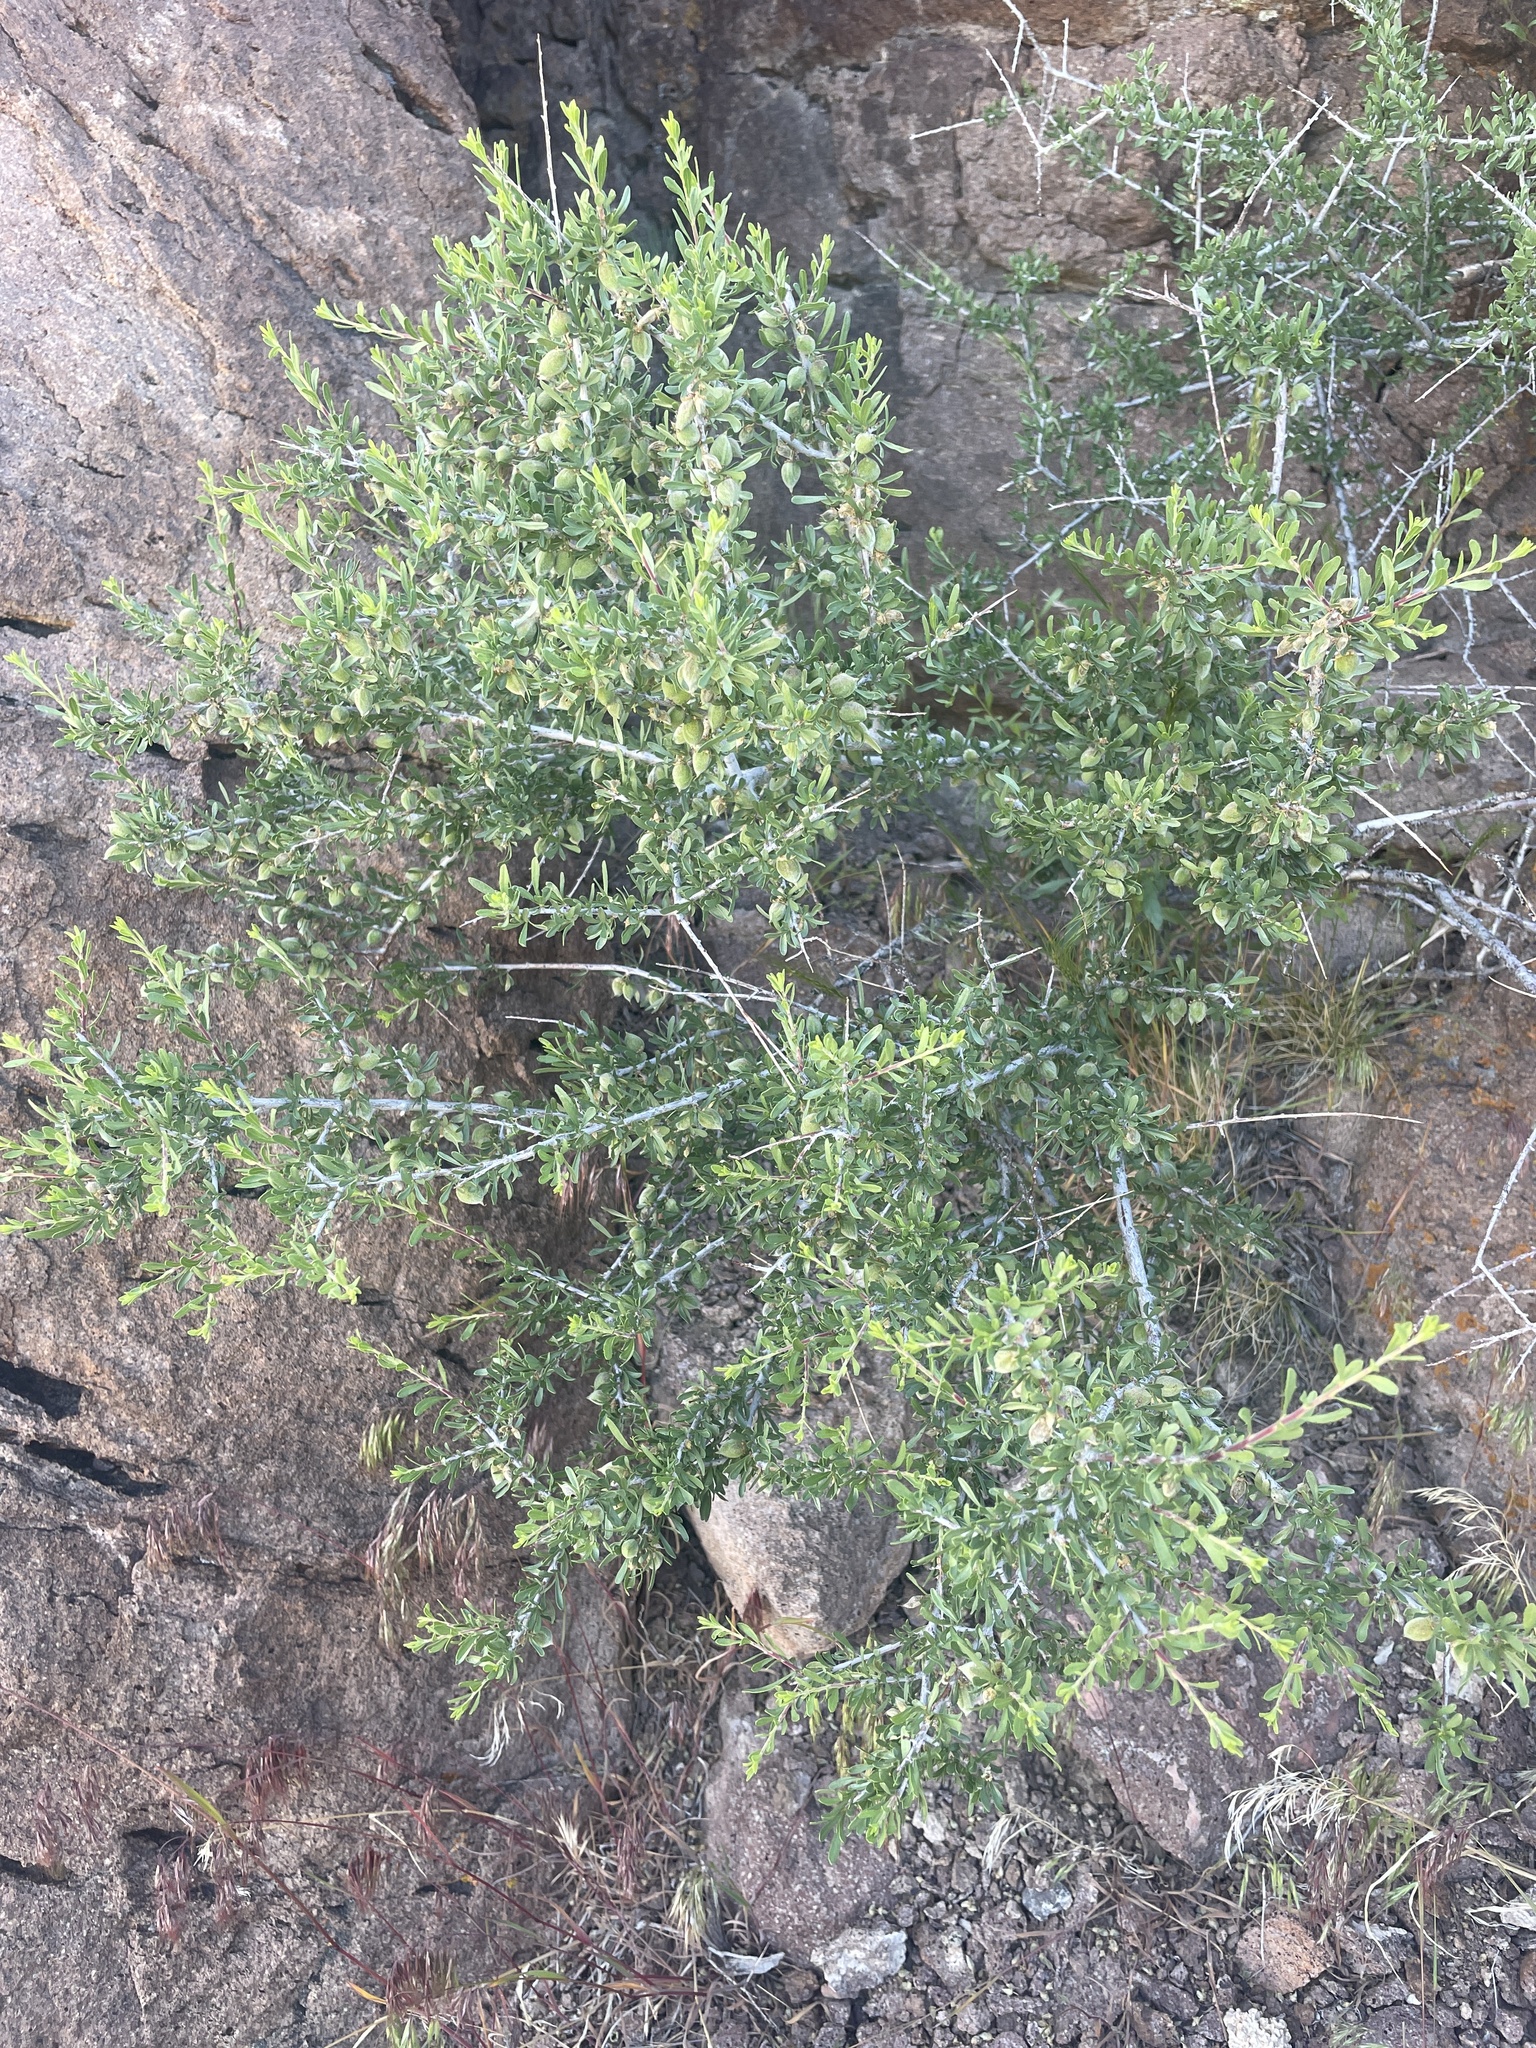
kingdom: Plantae
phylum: Tracheophyta
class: Magnoliopsida
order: Rosales
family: Rosaceae
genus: Prunus
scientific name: Prunus fasciculata
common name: Desert almond
